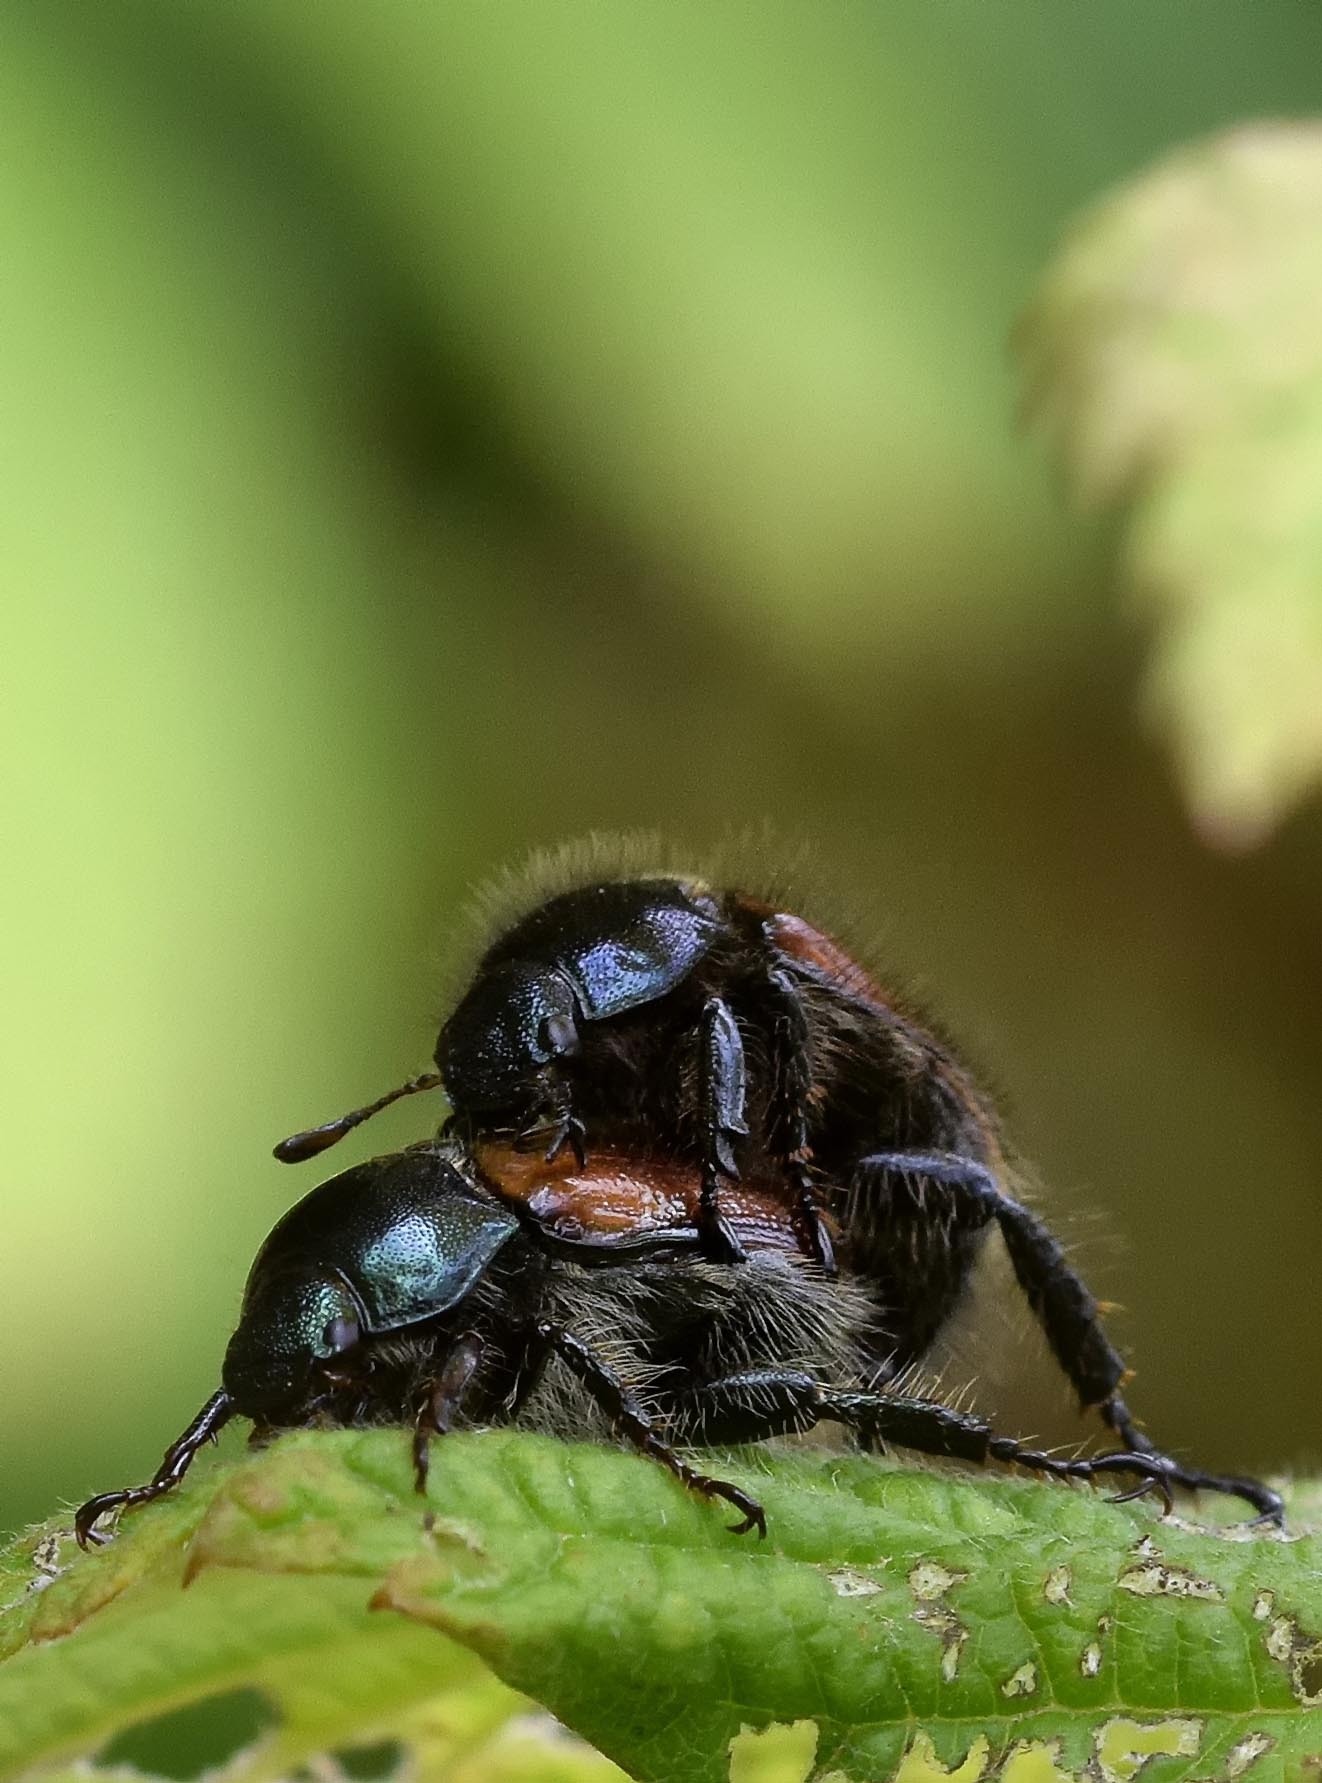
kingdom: Animalia
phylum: Arthropoda
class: Insecta
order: Coleoptera
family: Scarabaeidae
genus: Phyllopertha
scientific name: Phyllopertha horticola
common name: Garden chafer
